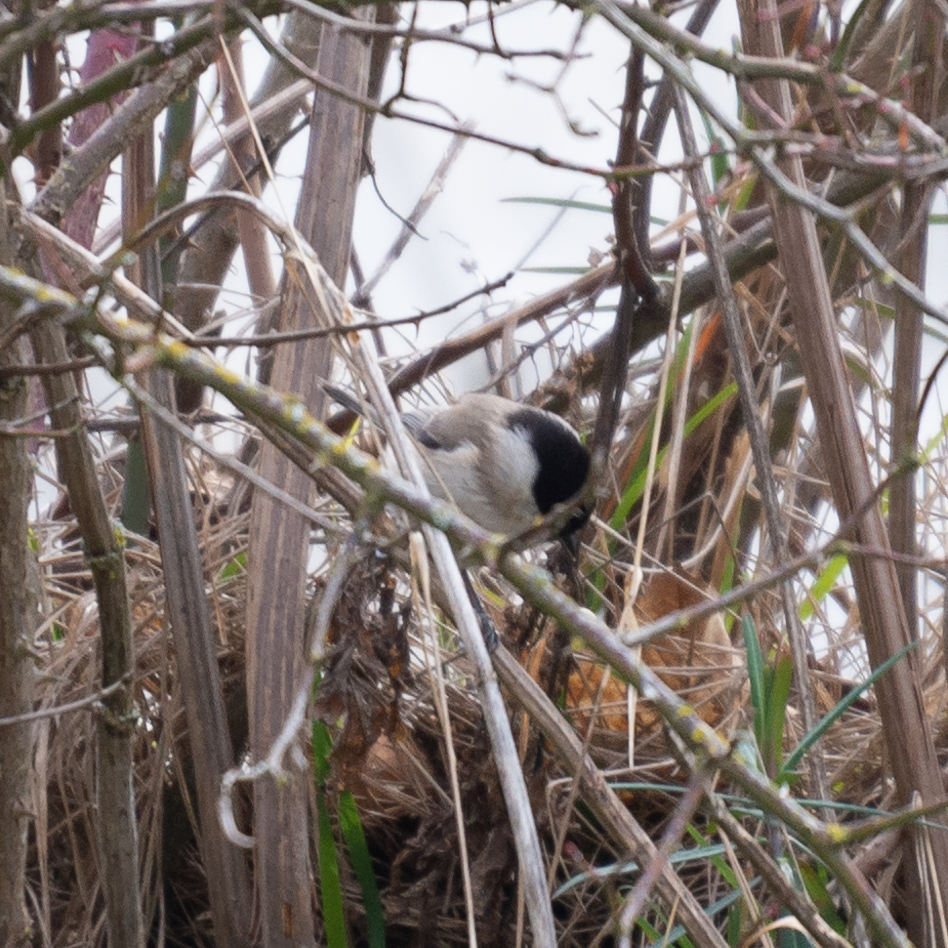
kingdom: Animalia
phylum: Chordata
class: Aves
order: Passeriformes
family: Paridae
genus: Poecile
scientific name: Poecile palustris
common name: Marsh tit
